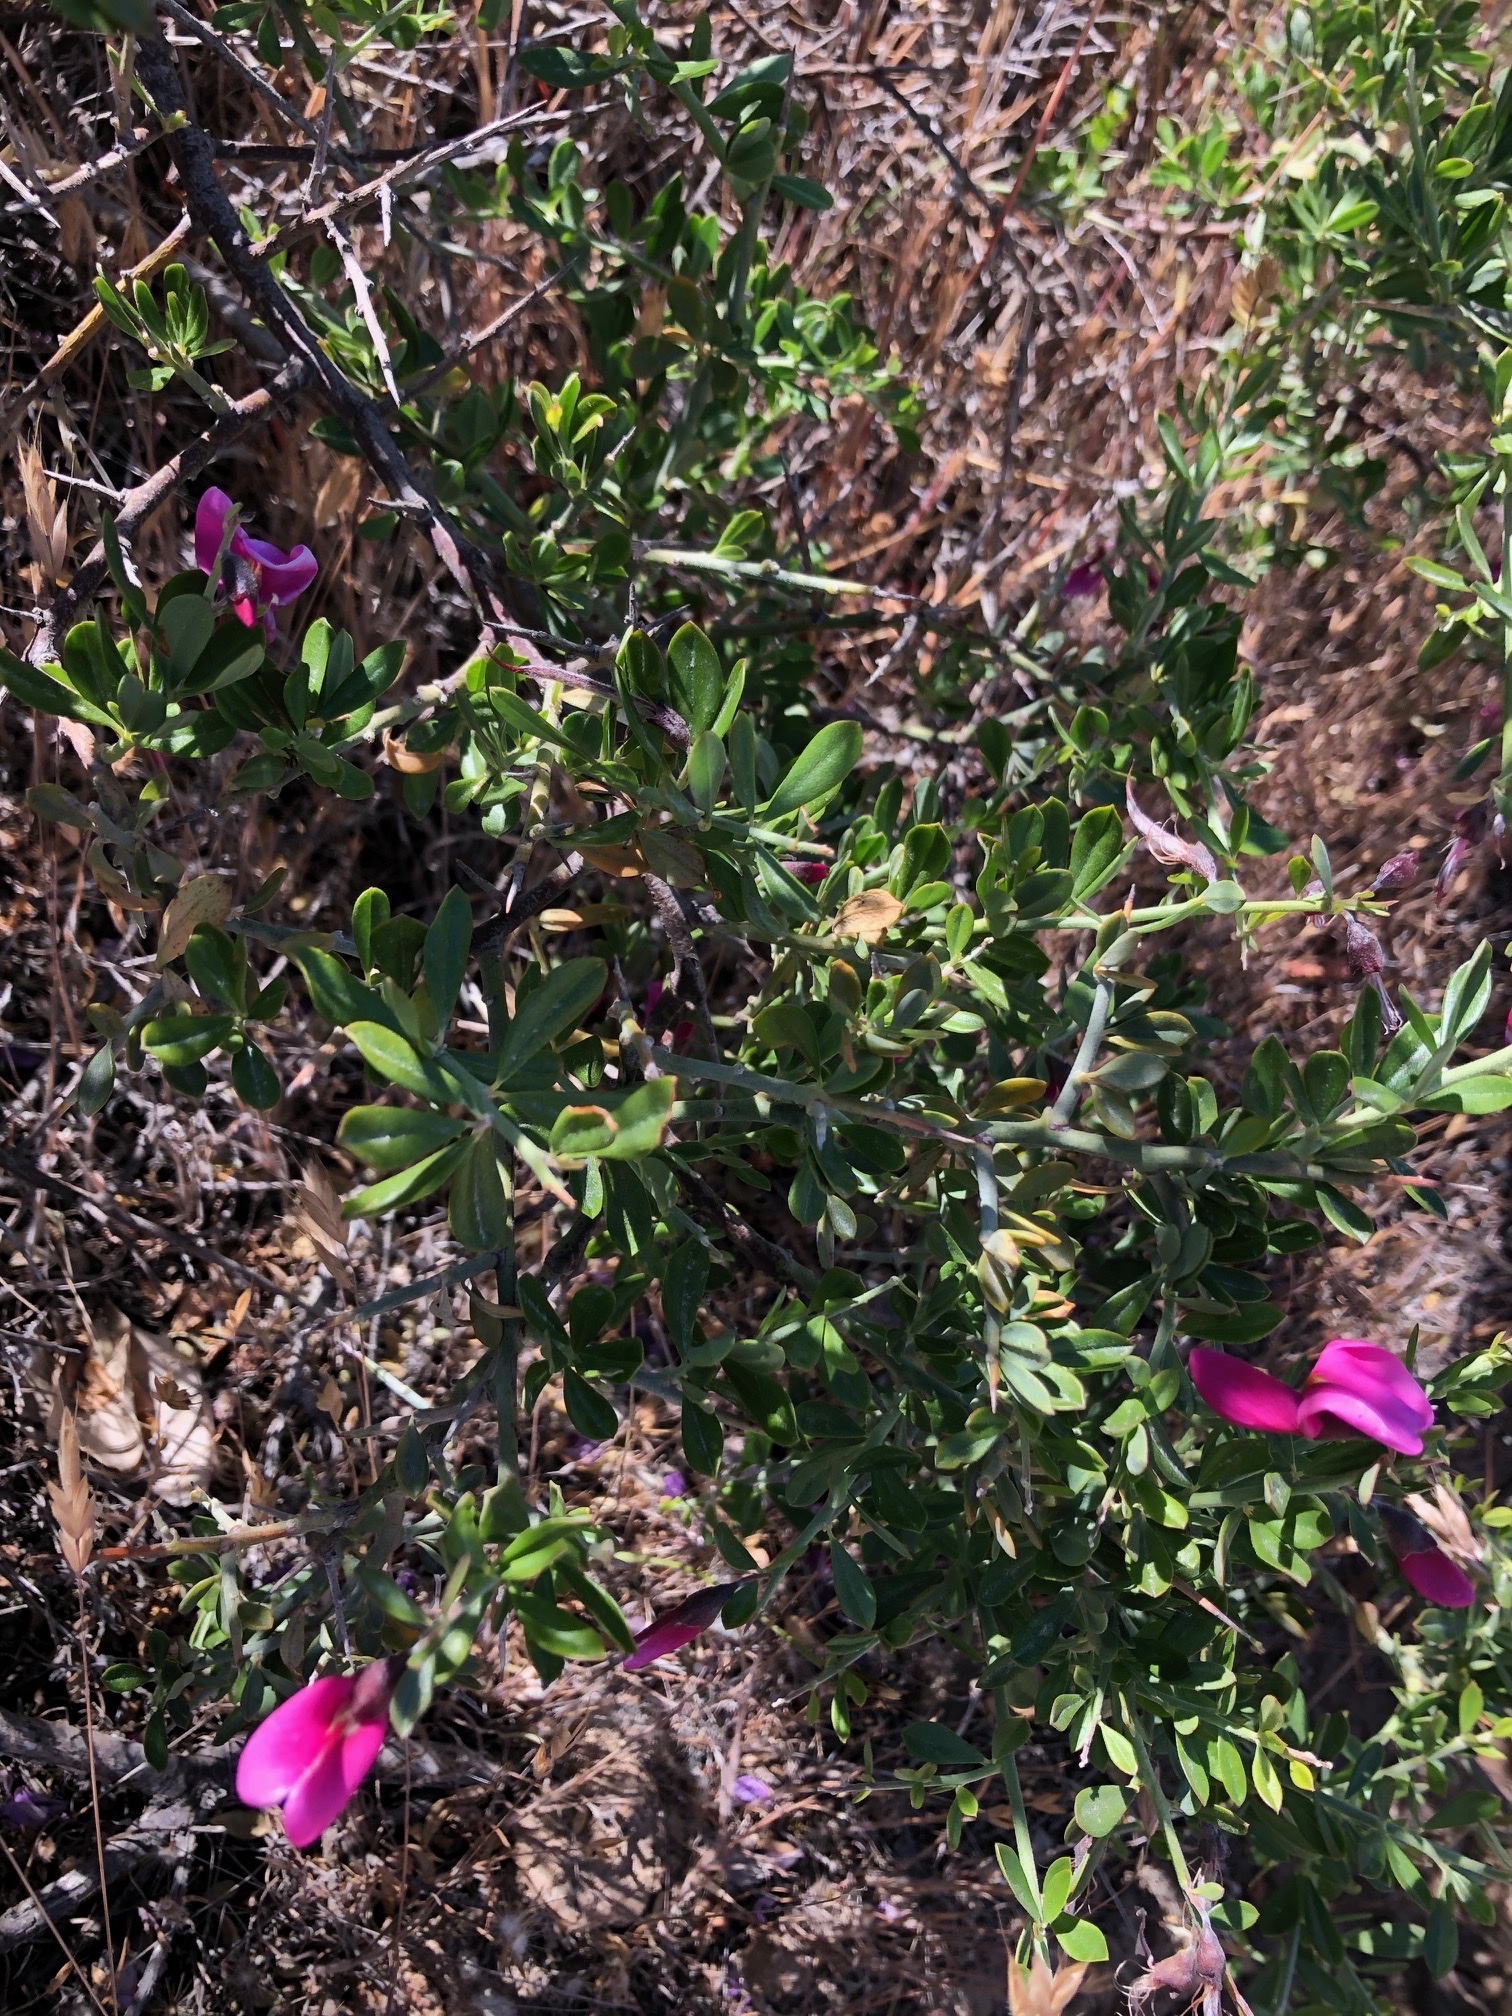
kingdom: Plantae
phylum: Tracheophyta
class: Magnoliopsida
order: Fabales
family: Fabaceae
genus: Pickeringia
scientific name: Pickeringia montana
